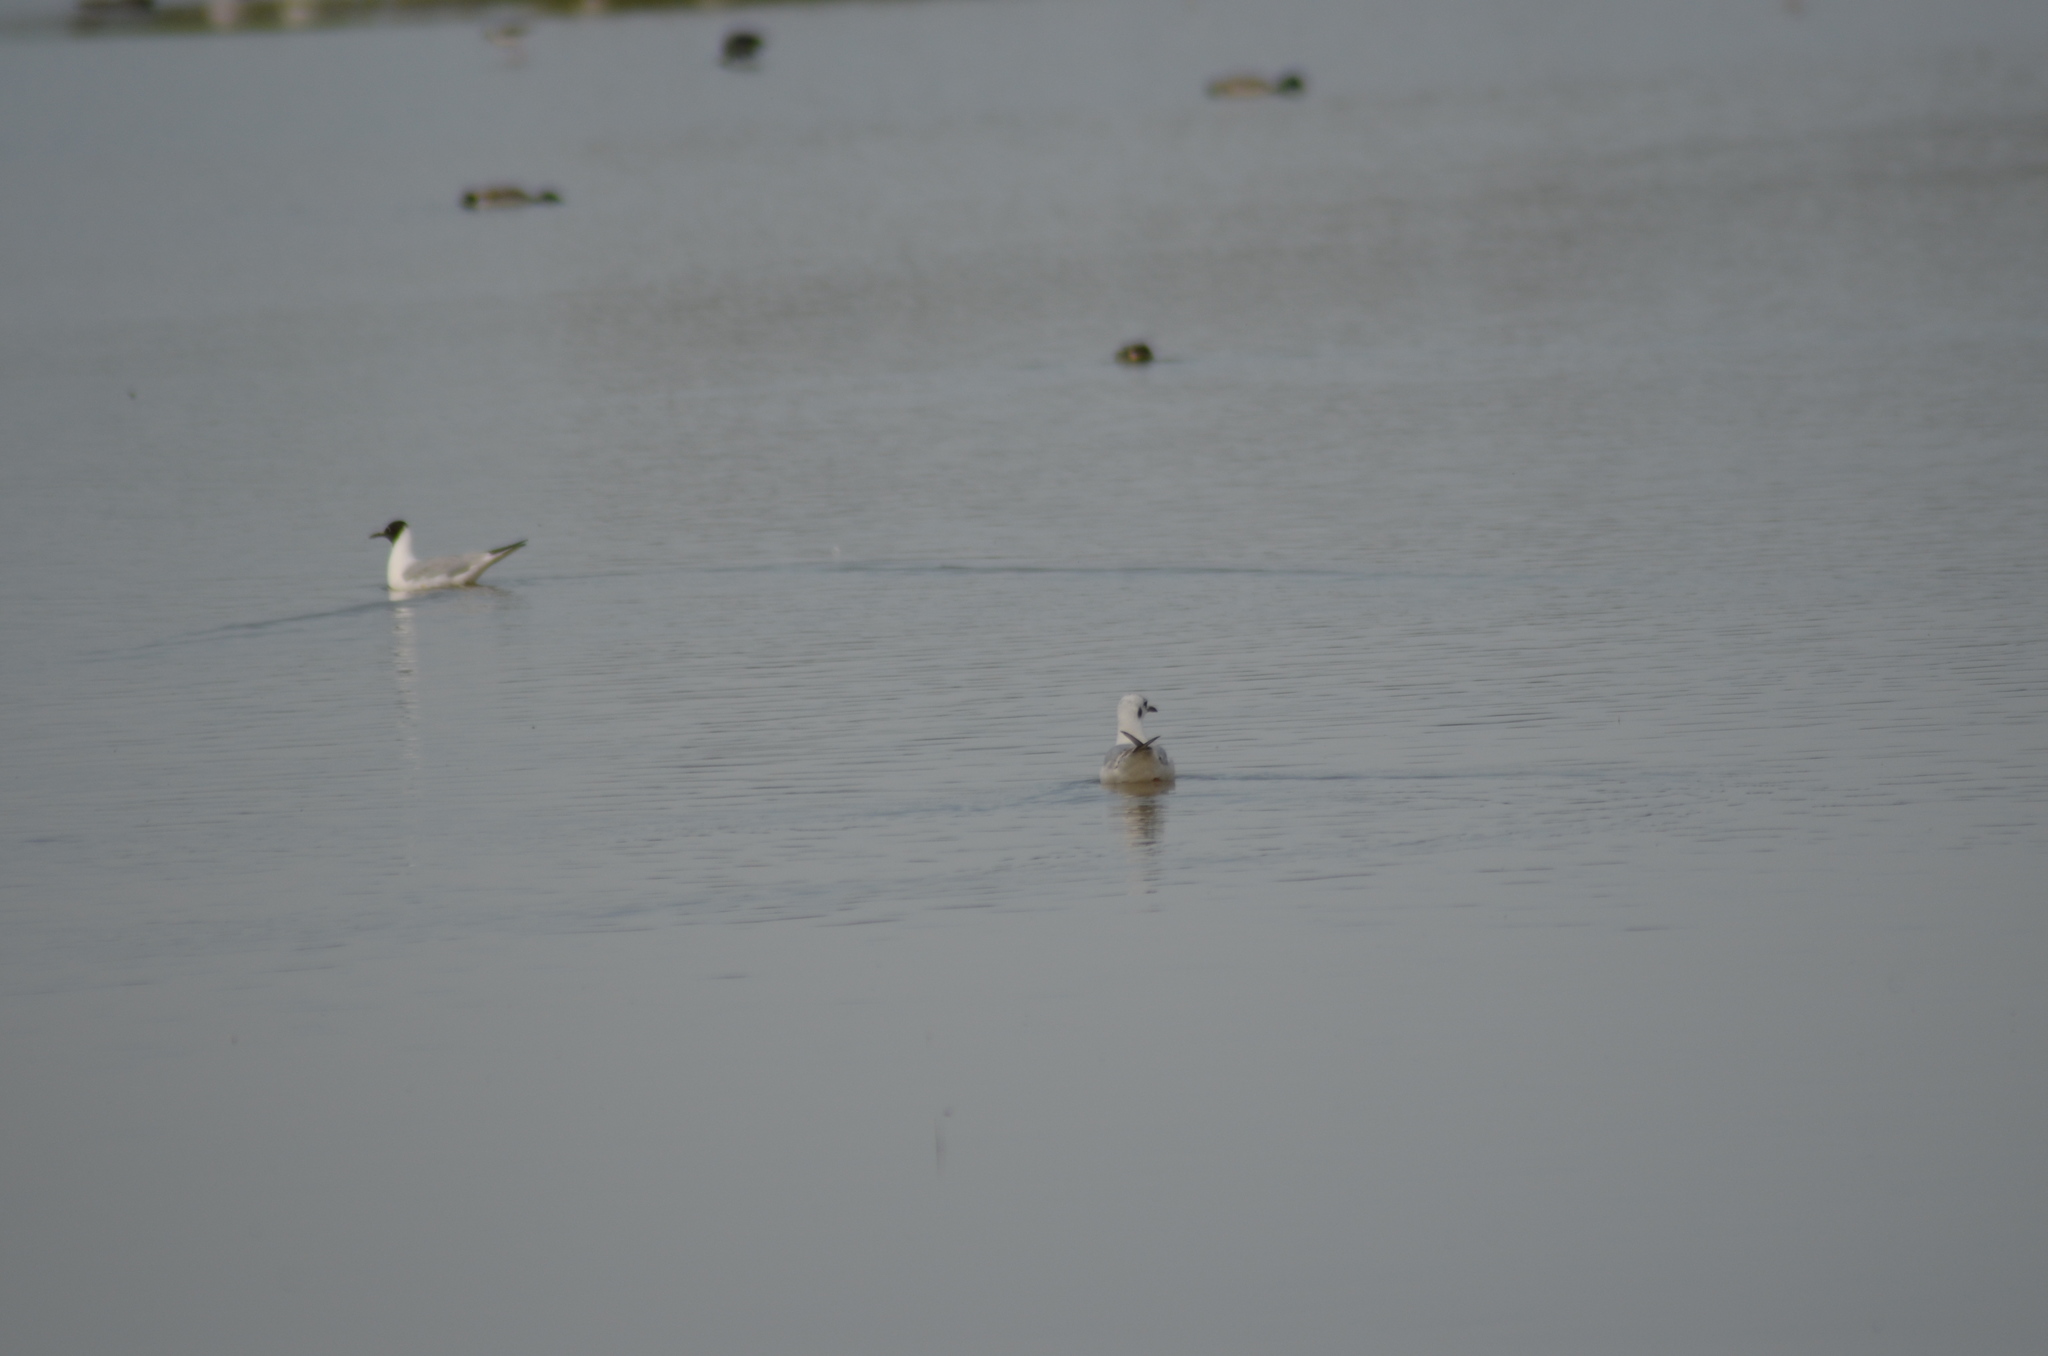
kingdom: Animalia
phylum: Chordata
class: Aves
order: Charadriiformes
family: Laridae
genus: Chroicocephalus
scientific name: Chroicocephalus ridibundus
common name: Black-headed gull
